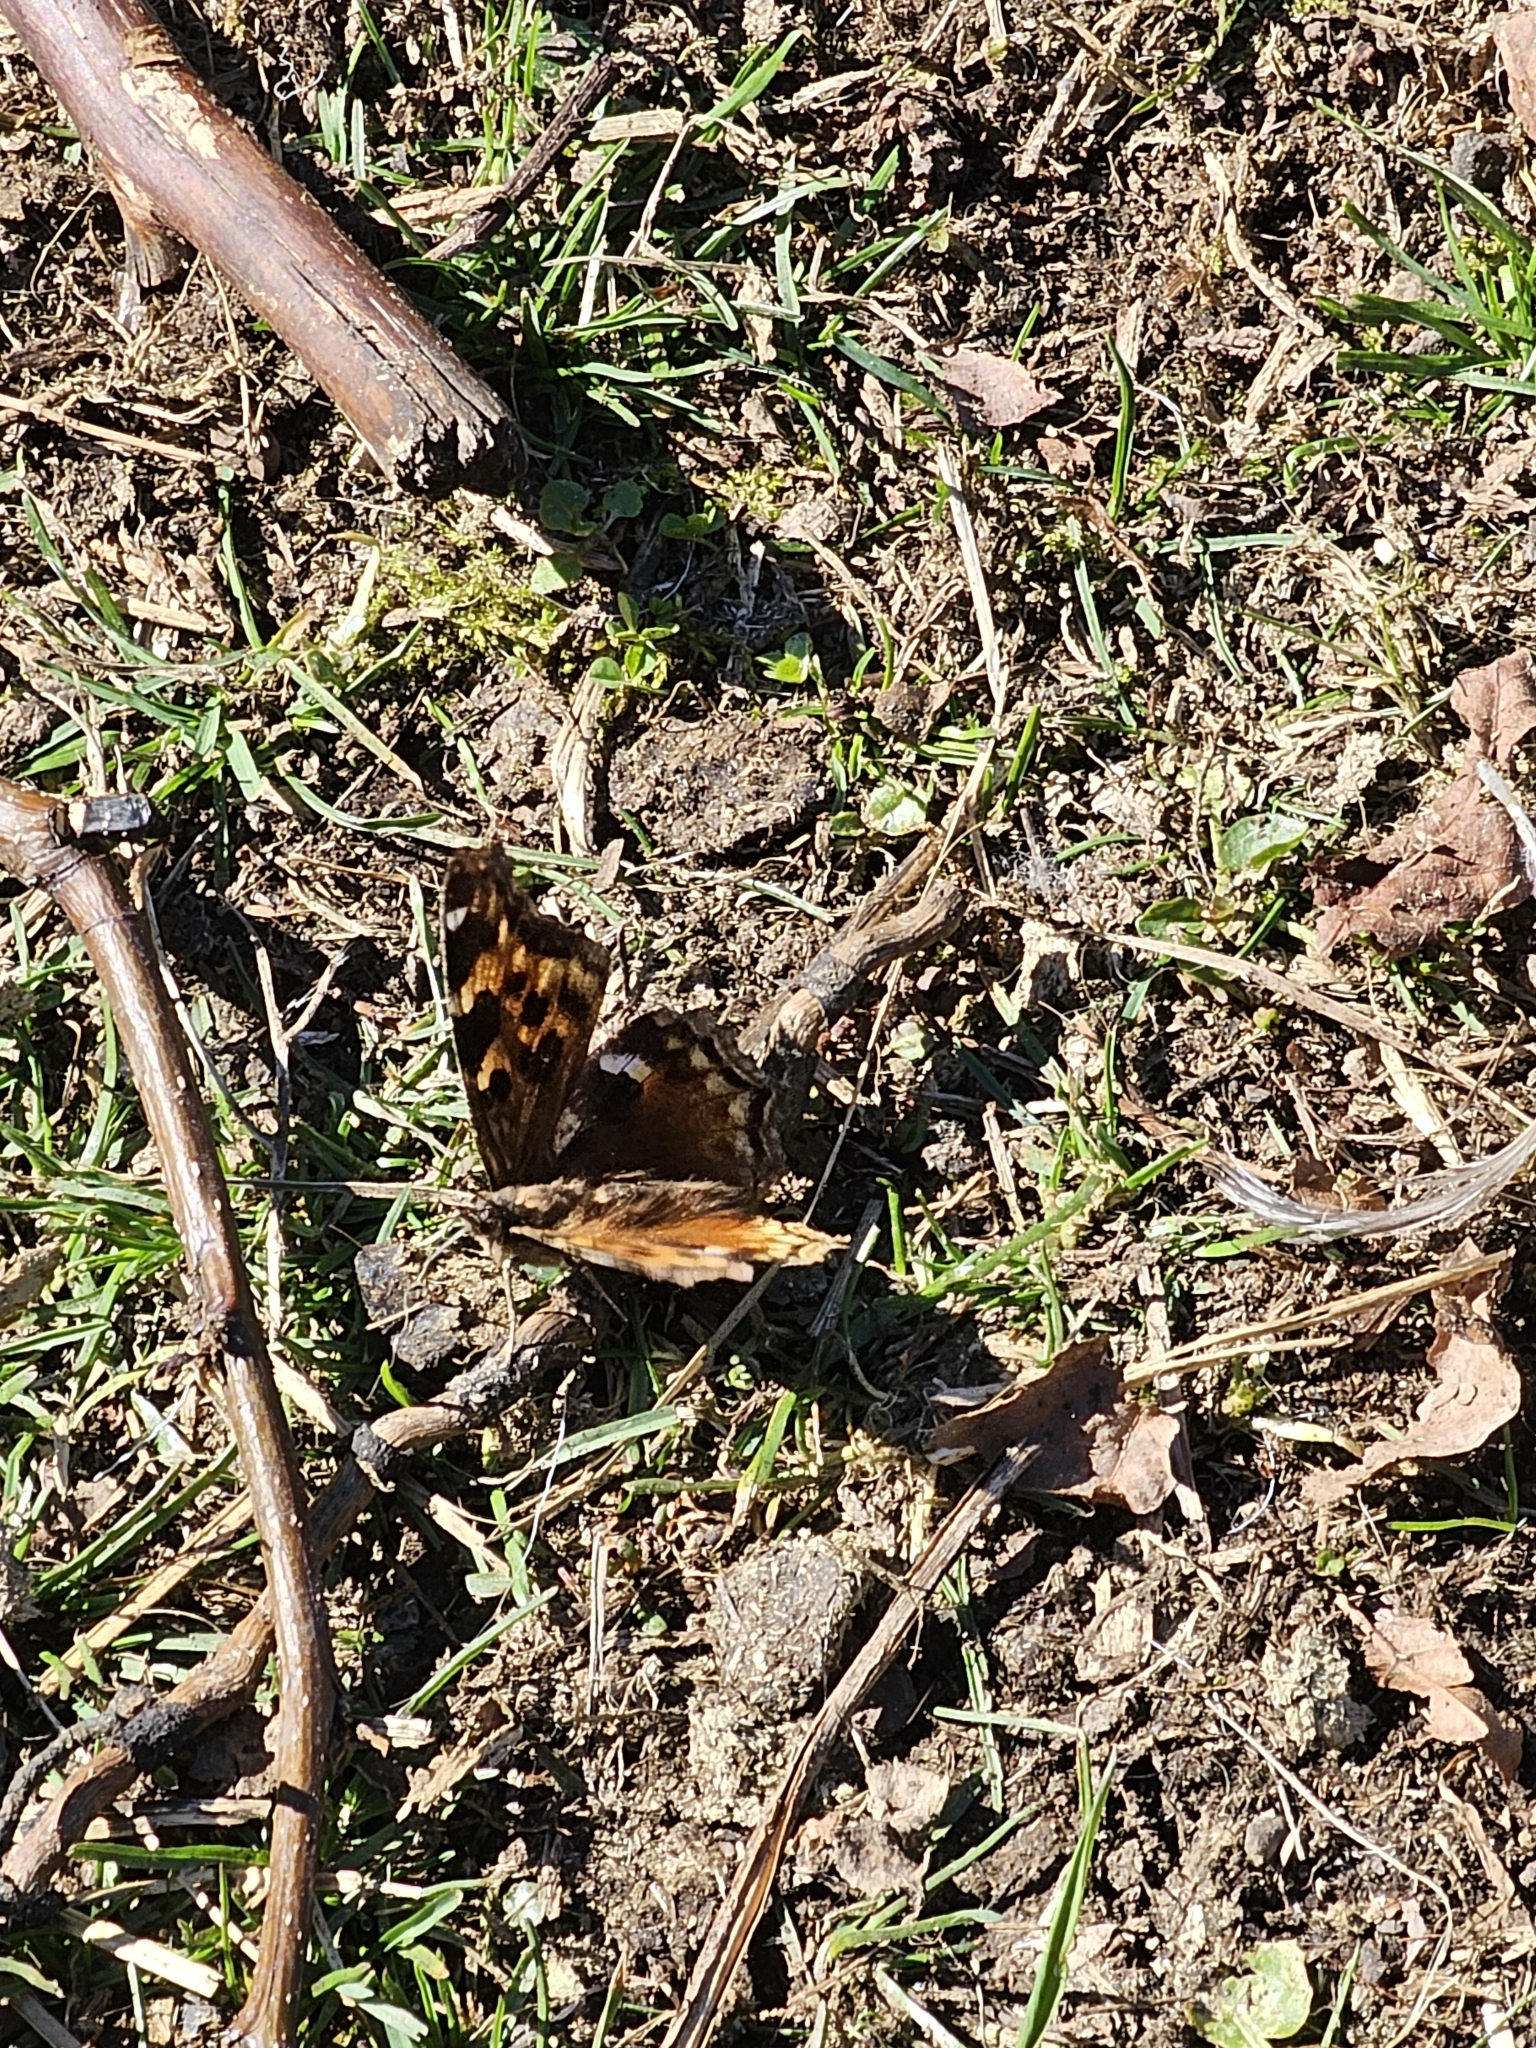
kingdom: Animalia
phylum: Arthropoda
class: Insecta
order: Lepidoptera
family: Nymphalidae
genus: Polygonia
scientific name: Polygonia vaualbum
